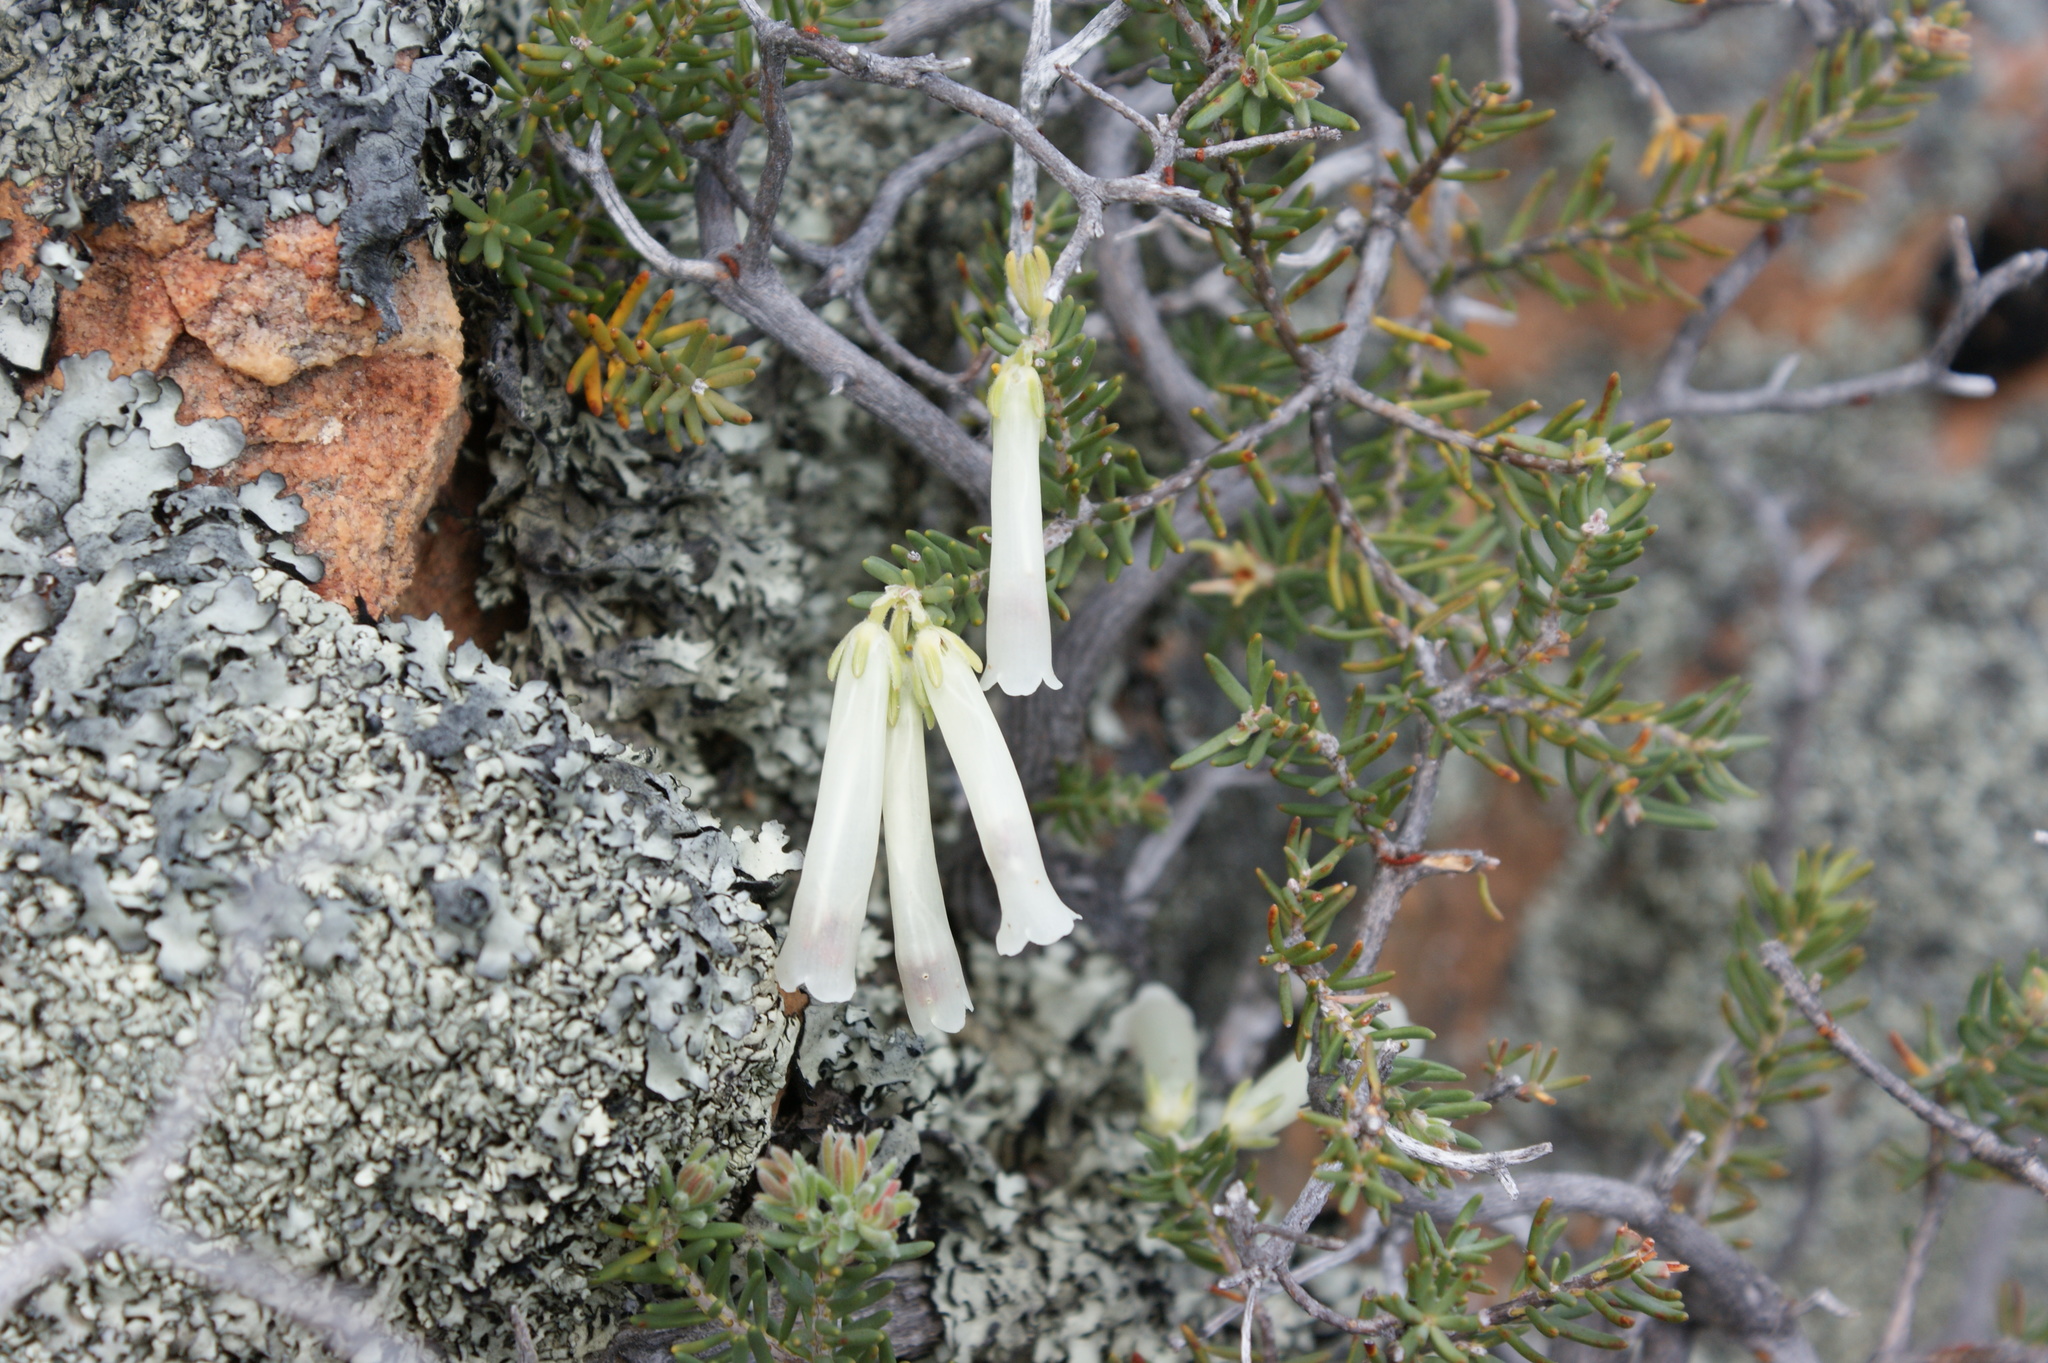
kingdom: Plantae
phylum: Tracheophyta
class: Magnoliopsida
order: Ericales
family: Ericaceae
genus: Erica
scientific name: Erica maximiliani
